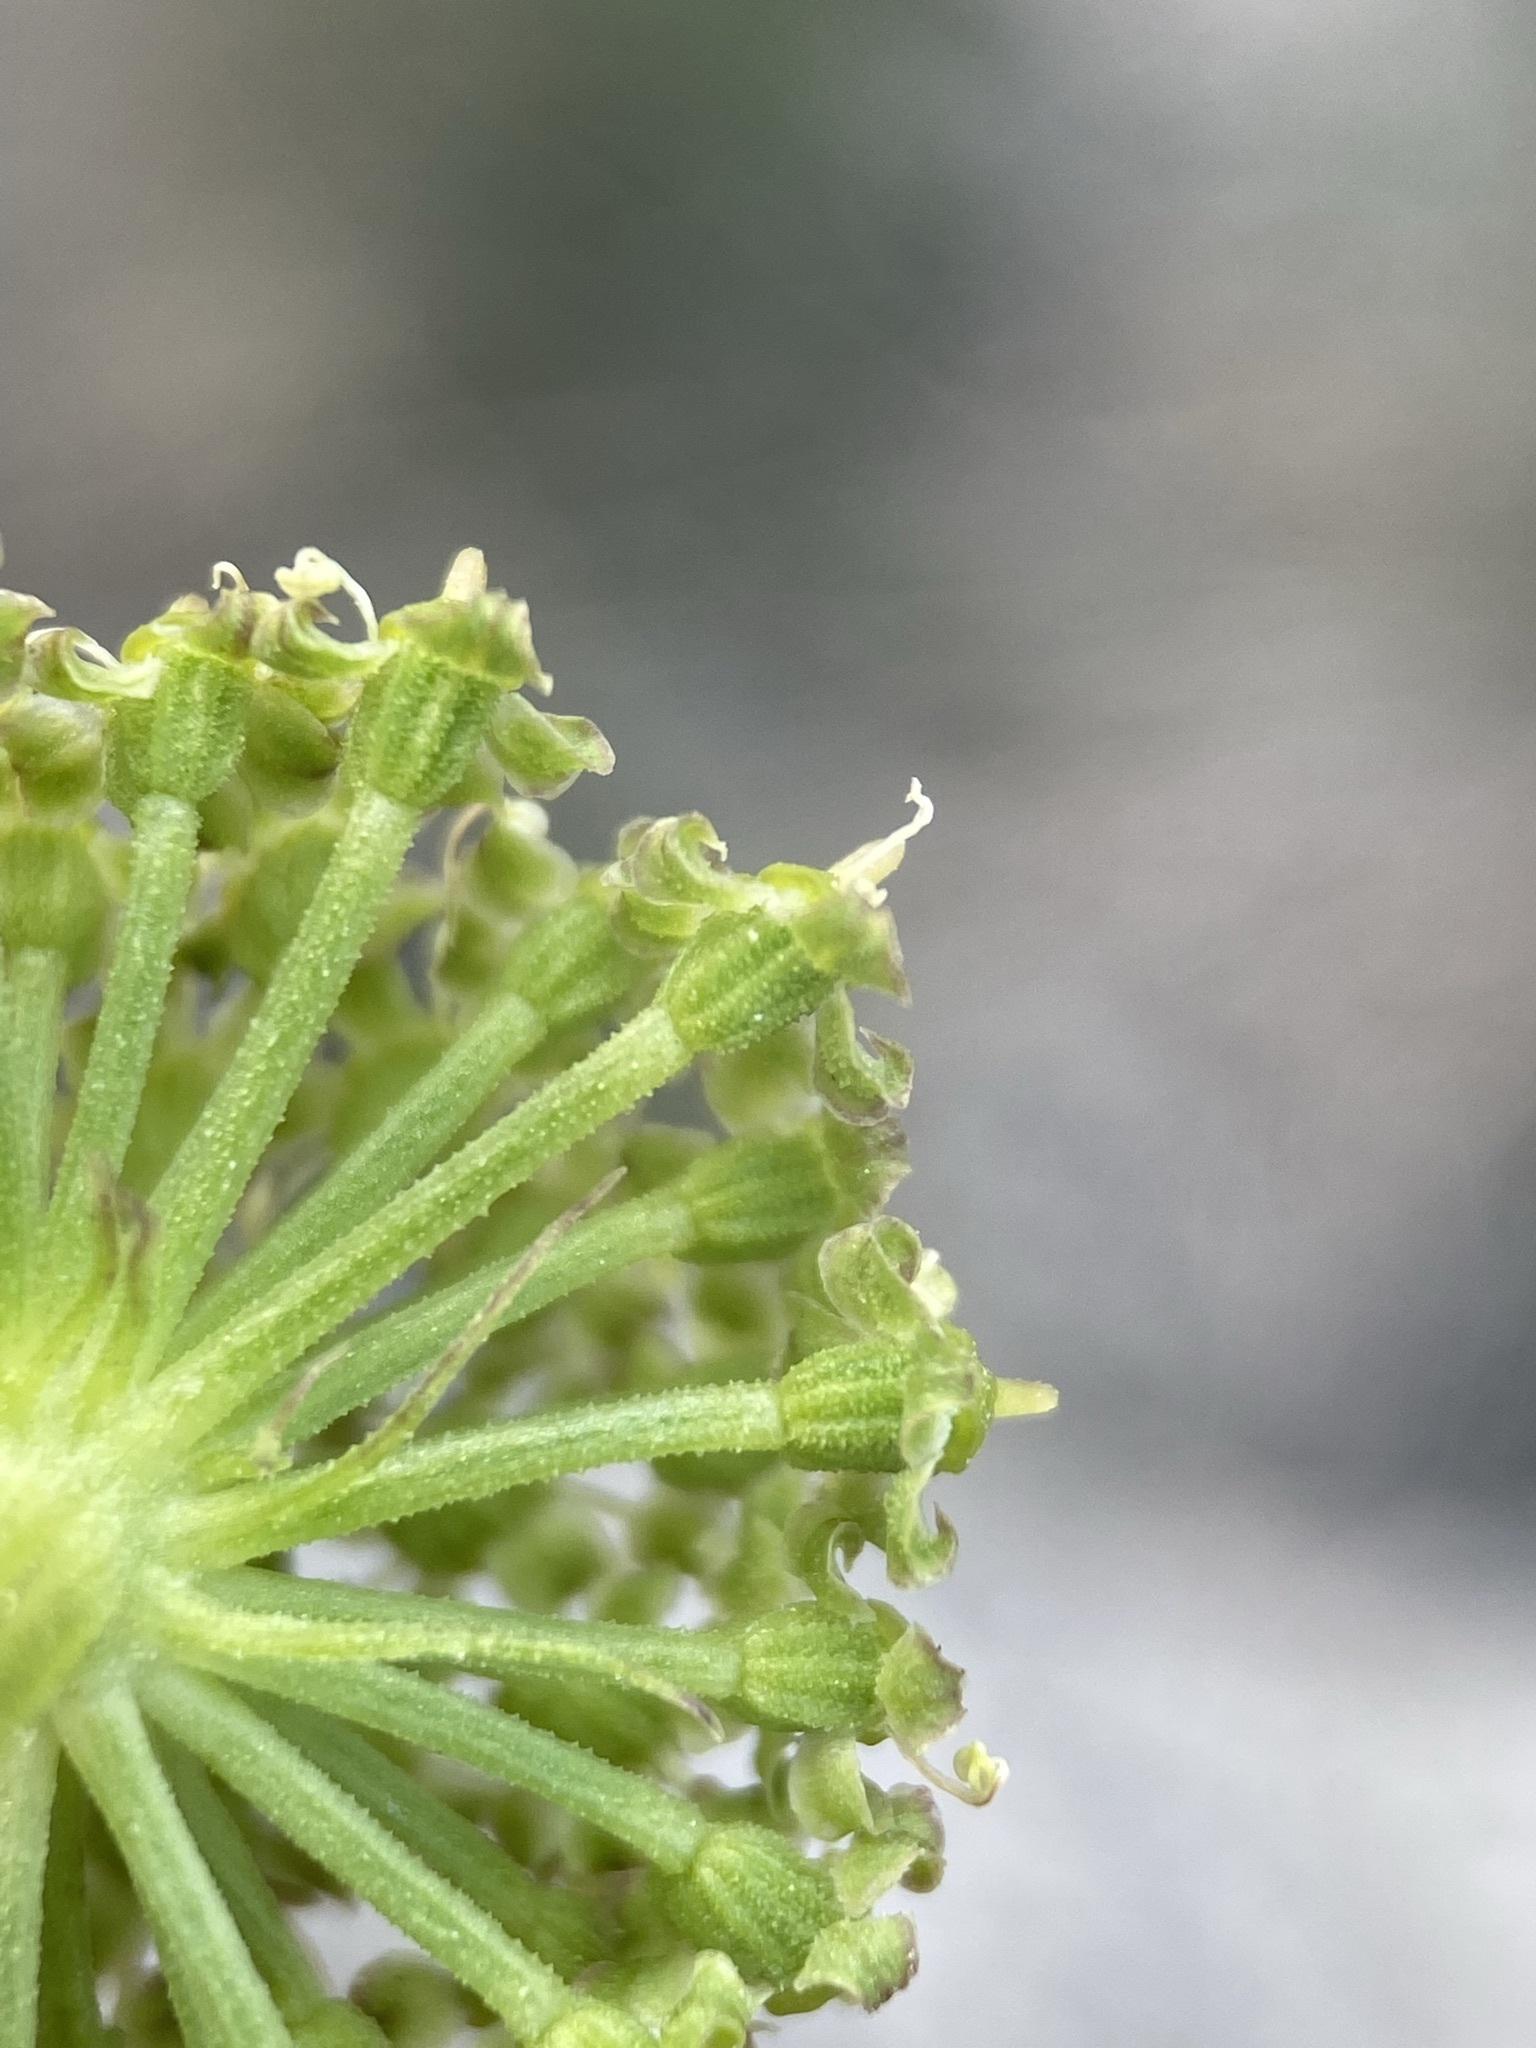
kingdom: Plantae
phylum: Tracheophyta
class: Magnoliopsida
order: Apiales
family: Apiaceae
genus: Angelica
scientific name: Angelica roseana
